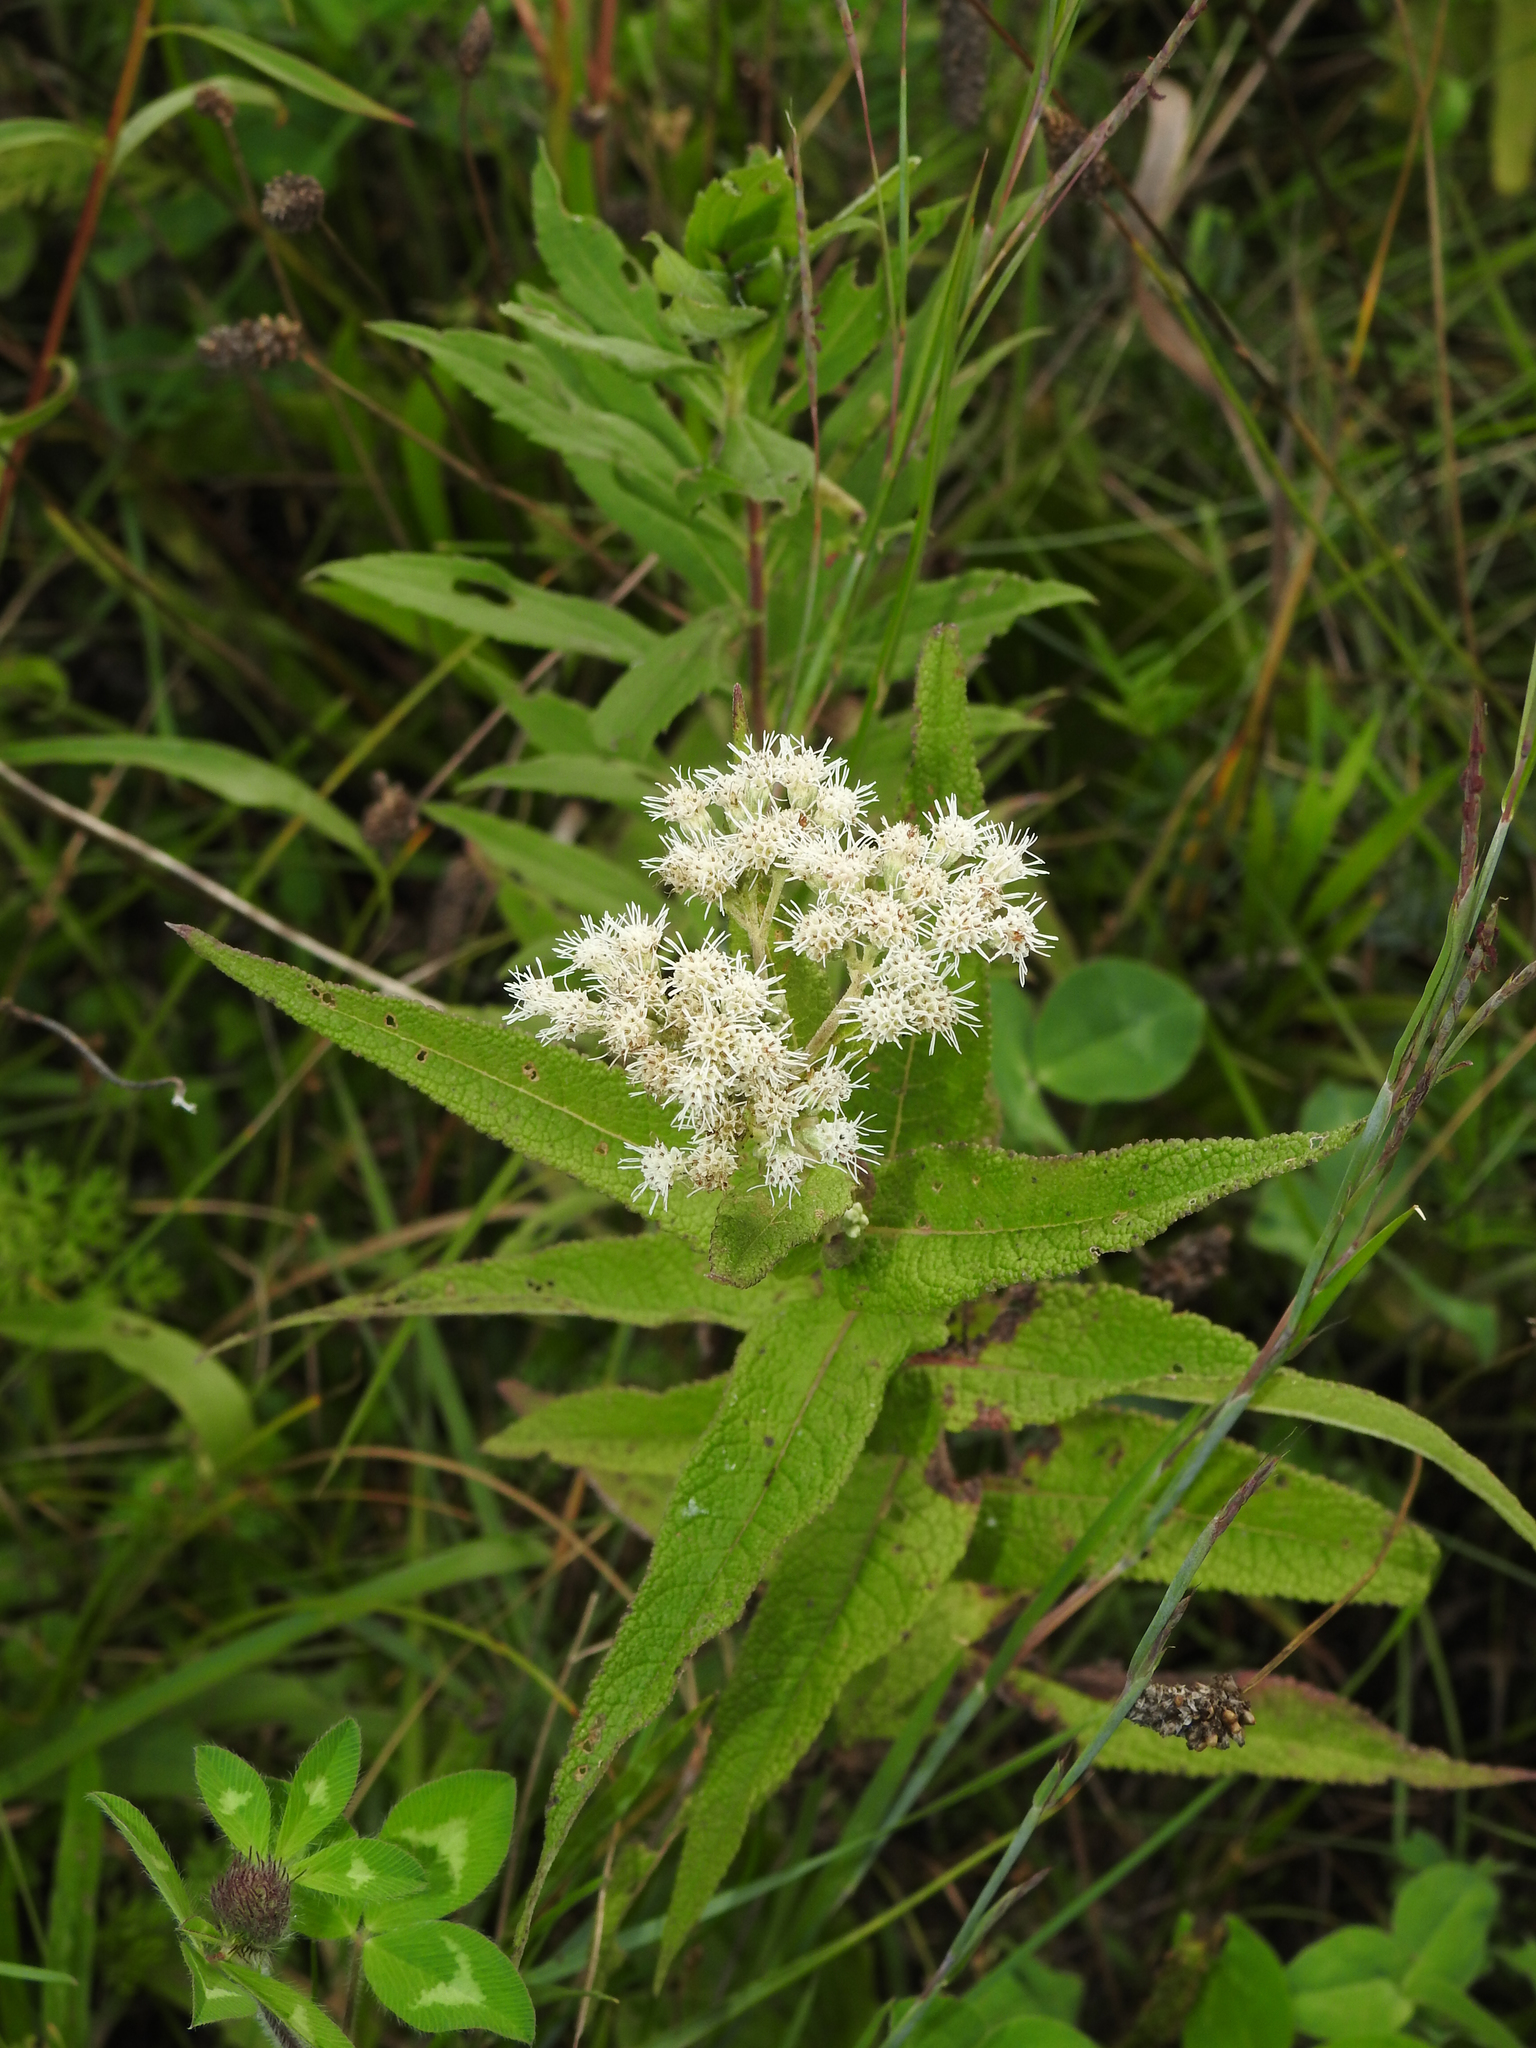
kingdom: Plantae
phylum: Tracheophyta
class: Magnoliopsida
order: Asterales
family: Asteraceae
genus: Eupatorium
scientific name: Eupatorium perfoliatum
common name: Boneset
